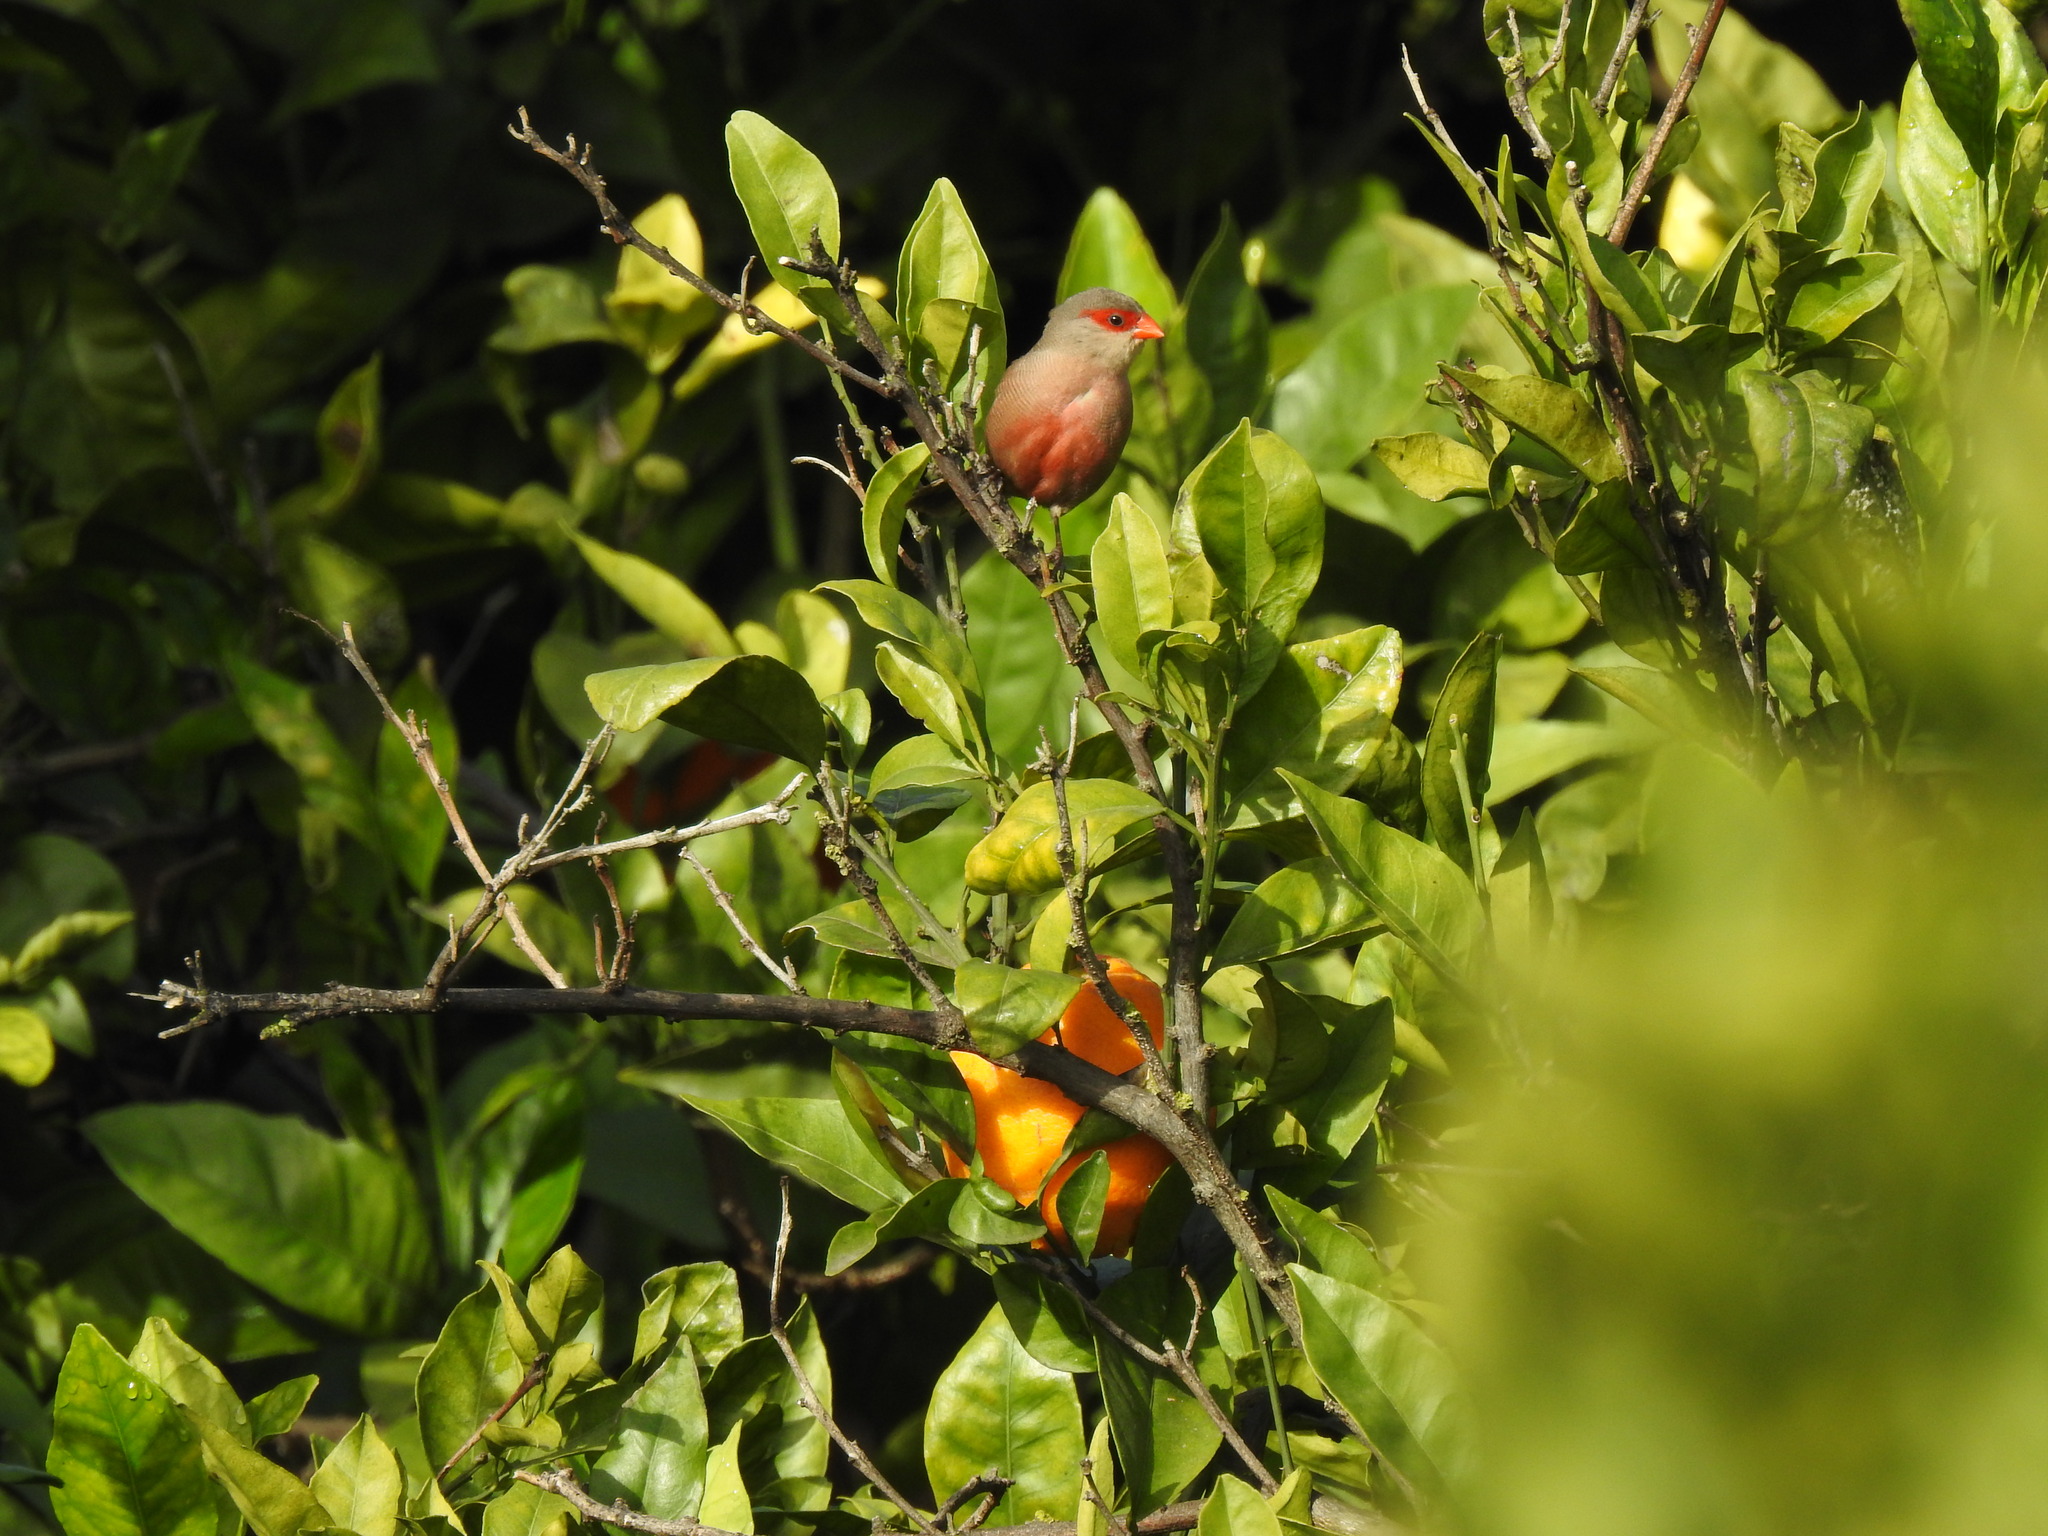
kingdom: Animalia
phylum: Chordata
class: Aves
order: Passeriformes
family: Estrildidae
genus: Estrilda
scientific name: Estrilda astrild
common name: Common waxbill
